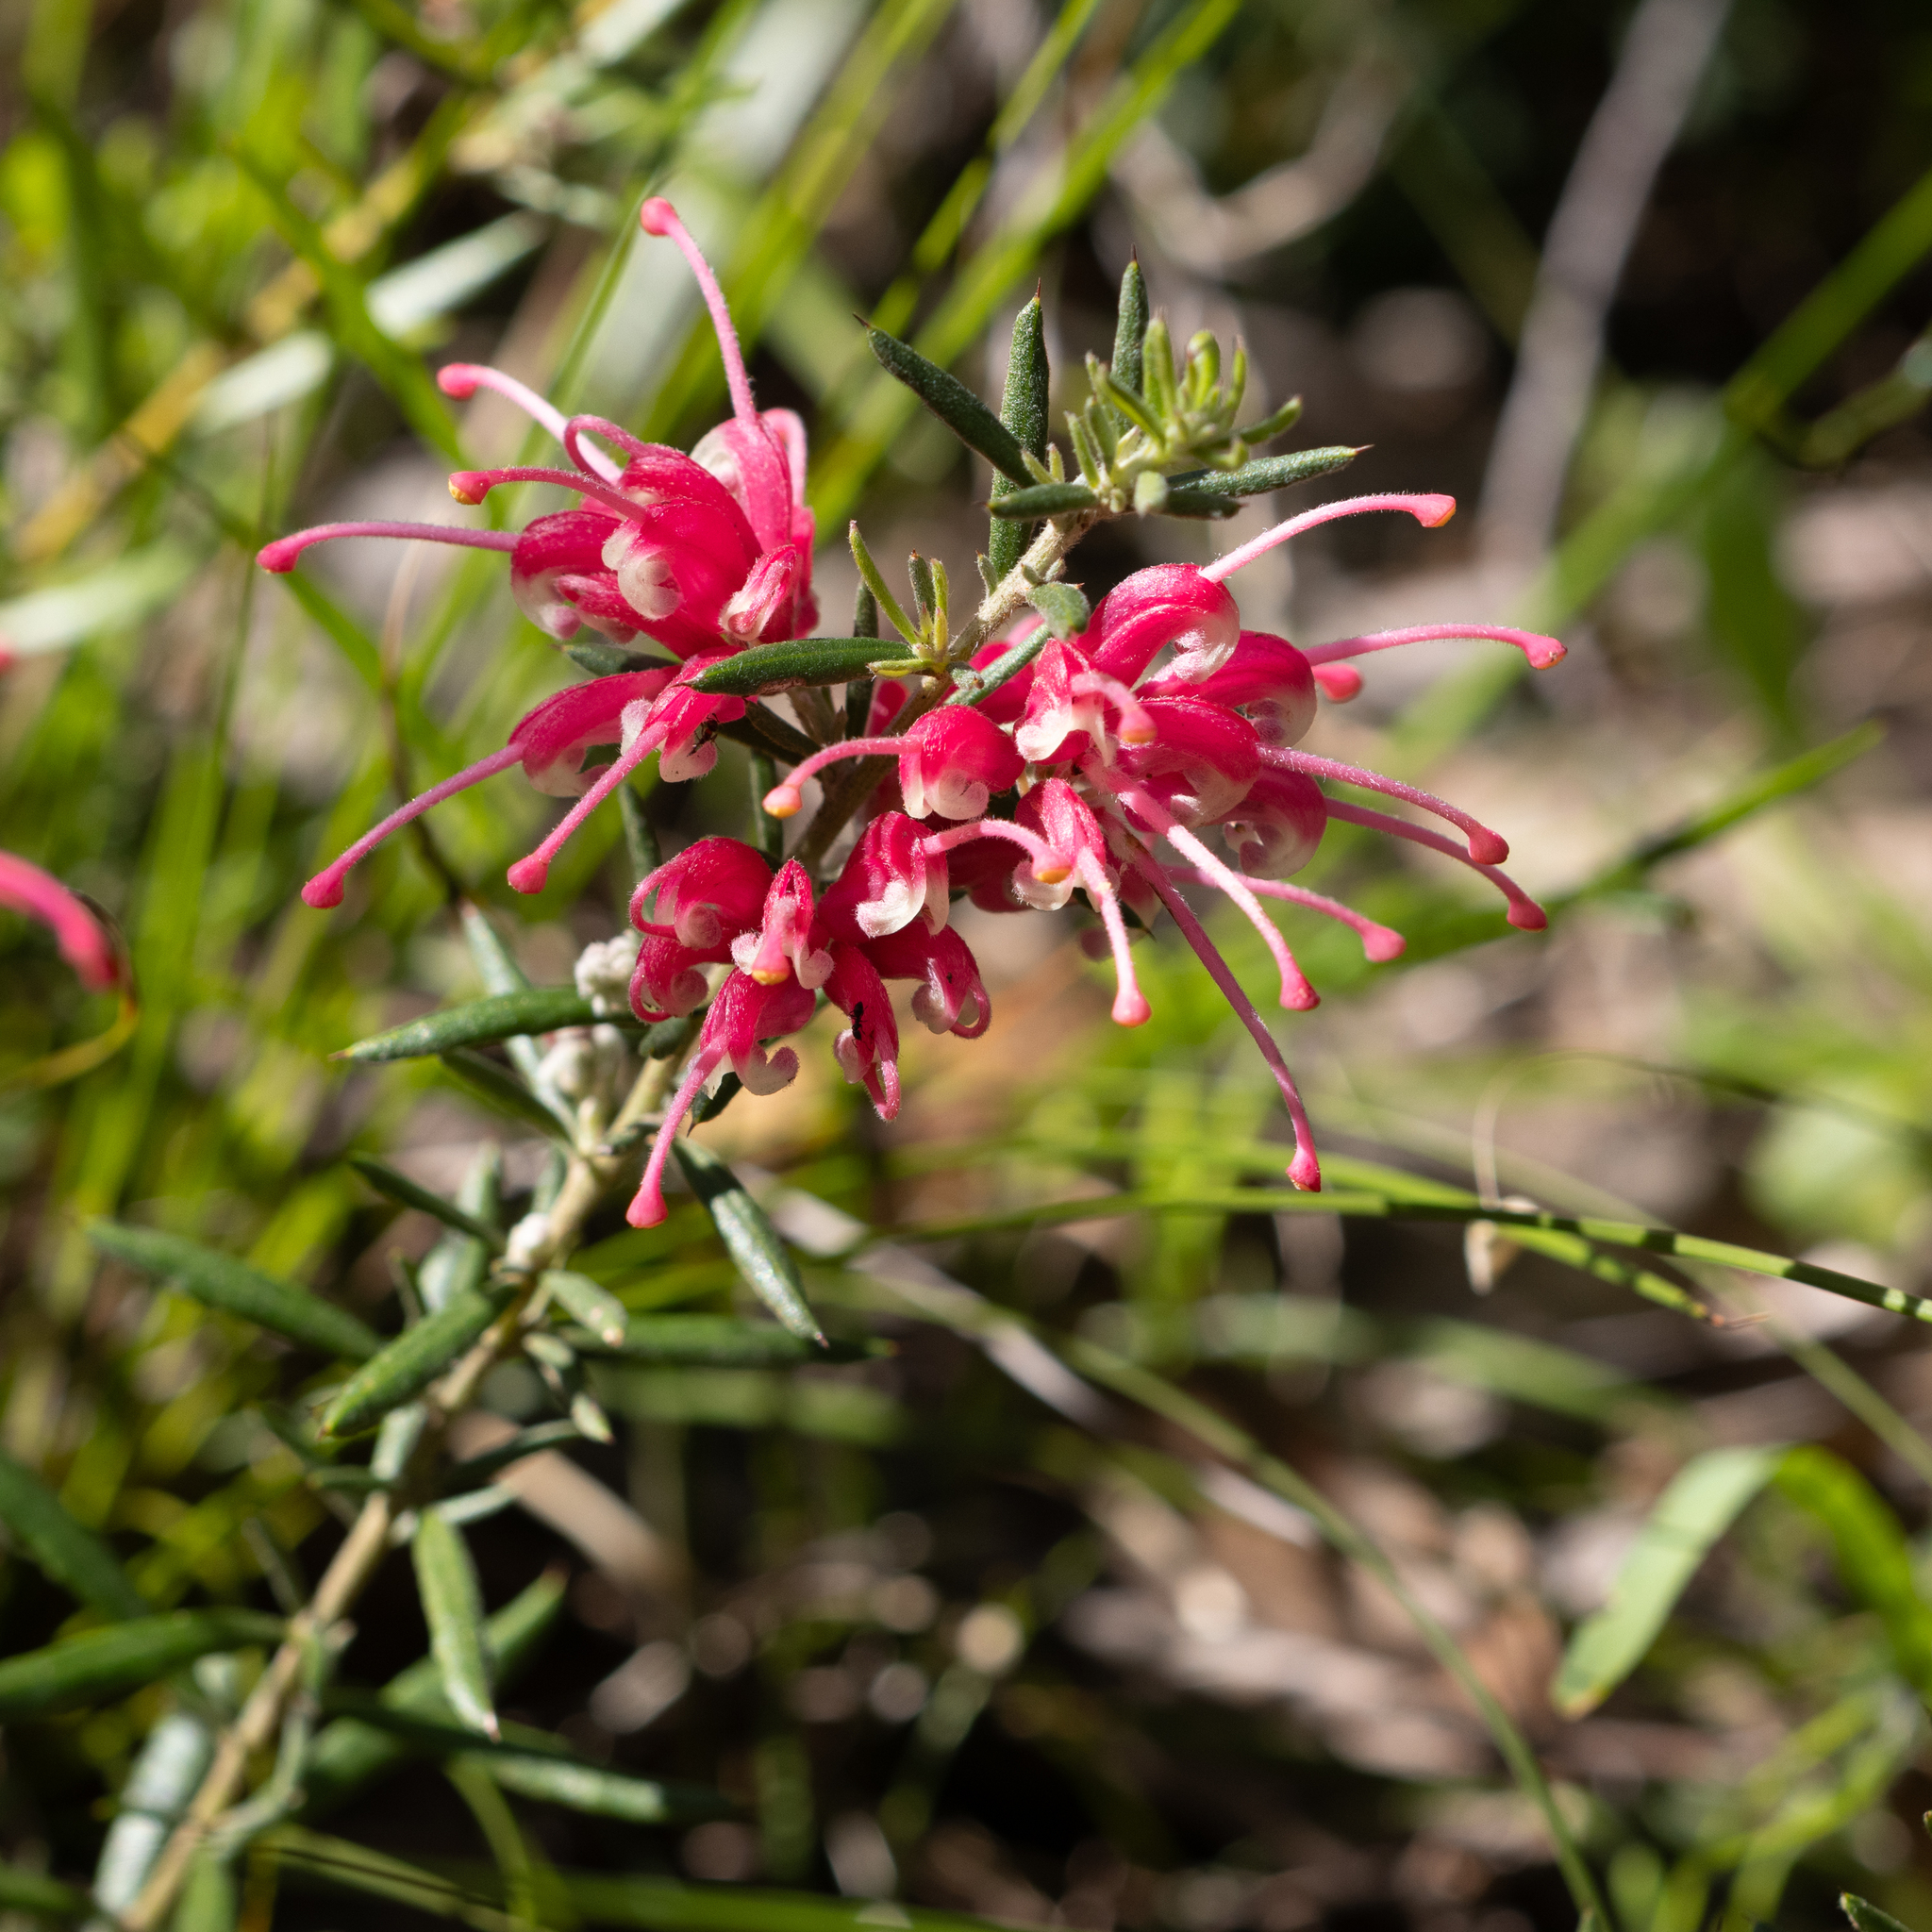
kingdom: Plantae
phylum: Tracheophyta
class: Magnoliopsida
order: Proteales
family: Proteaceae
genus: Grevillea
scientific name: Grevillea lavandulacea
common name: Lavender grevillea
